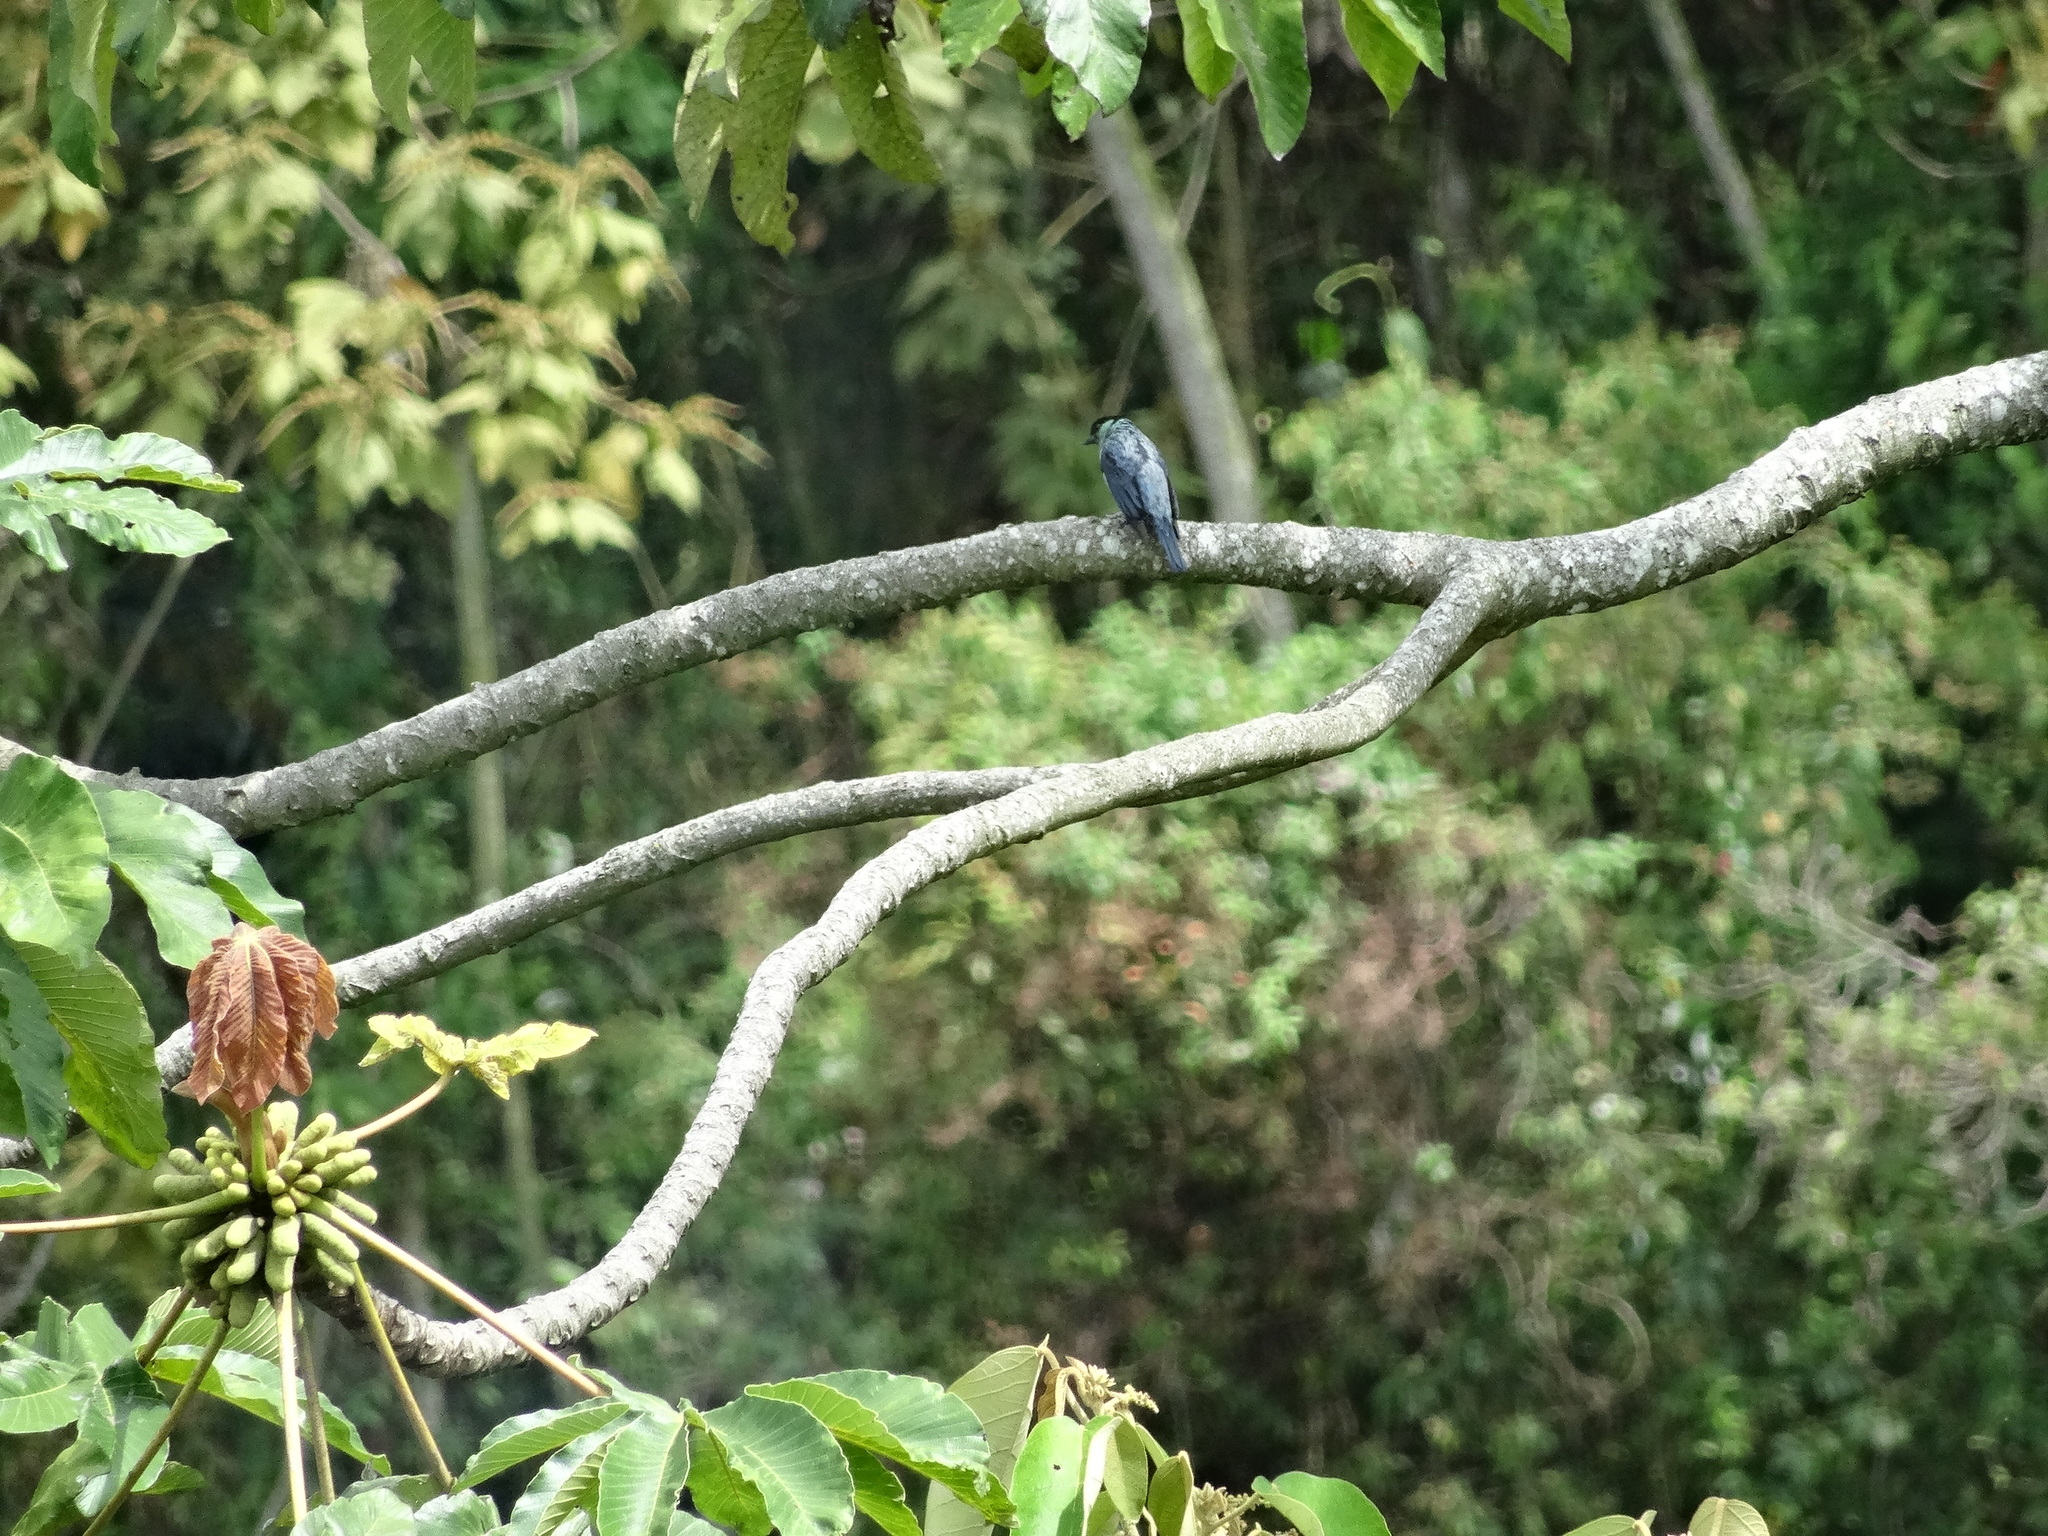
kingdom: Animalia
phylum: Chordata
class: Aves
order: Passeriformes
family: Thraupidae
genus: Stilpnia
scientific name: Stilpnia heinei
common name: Black-capped tanager
